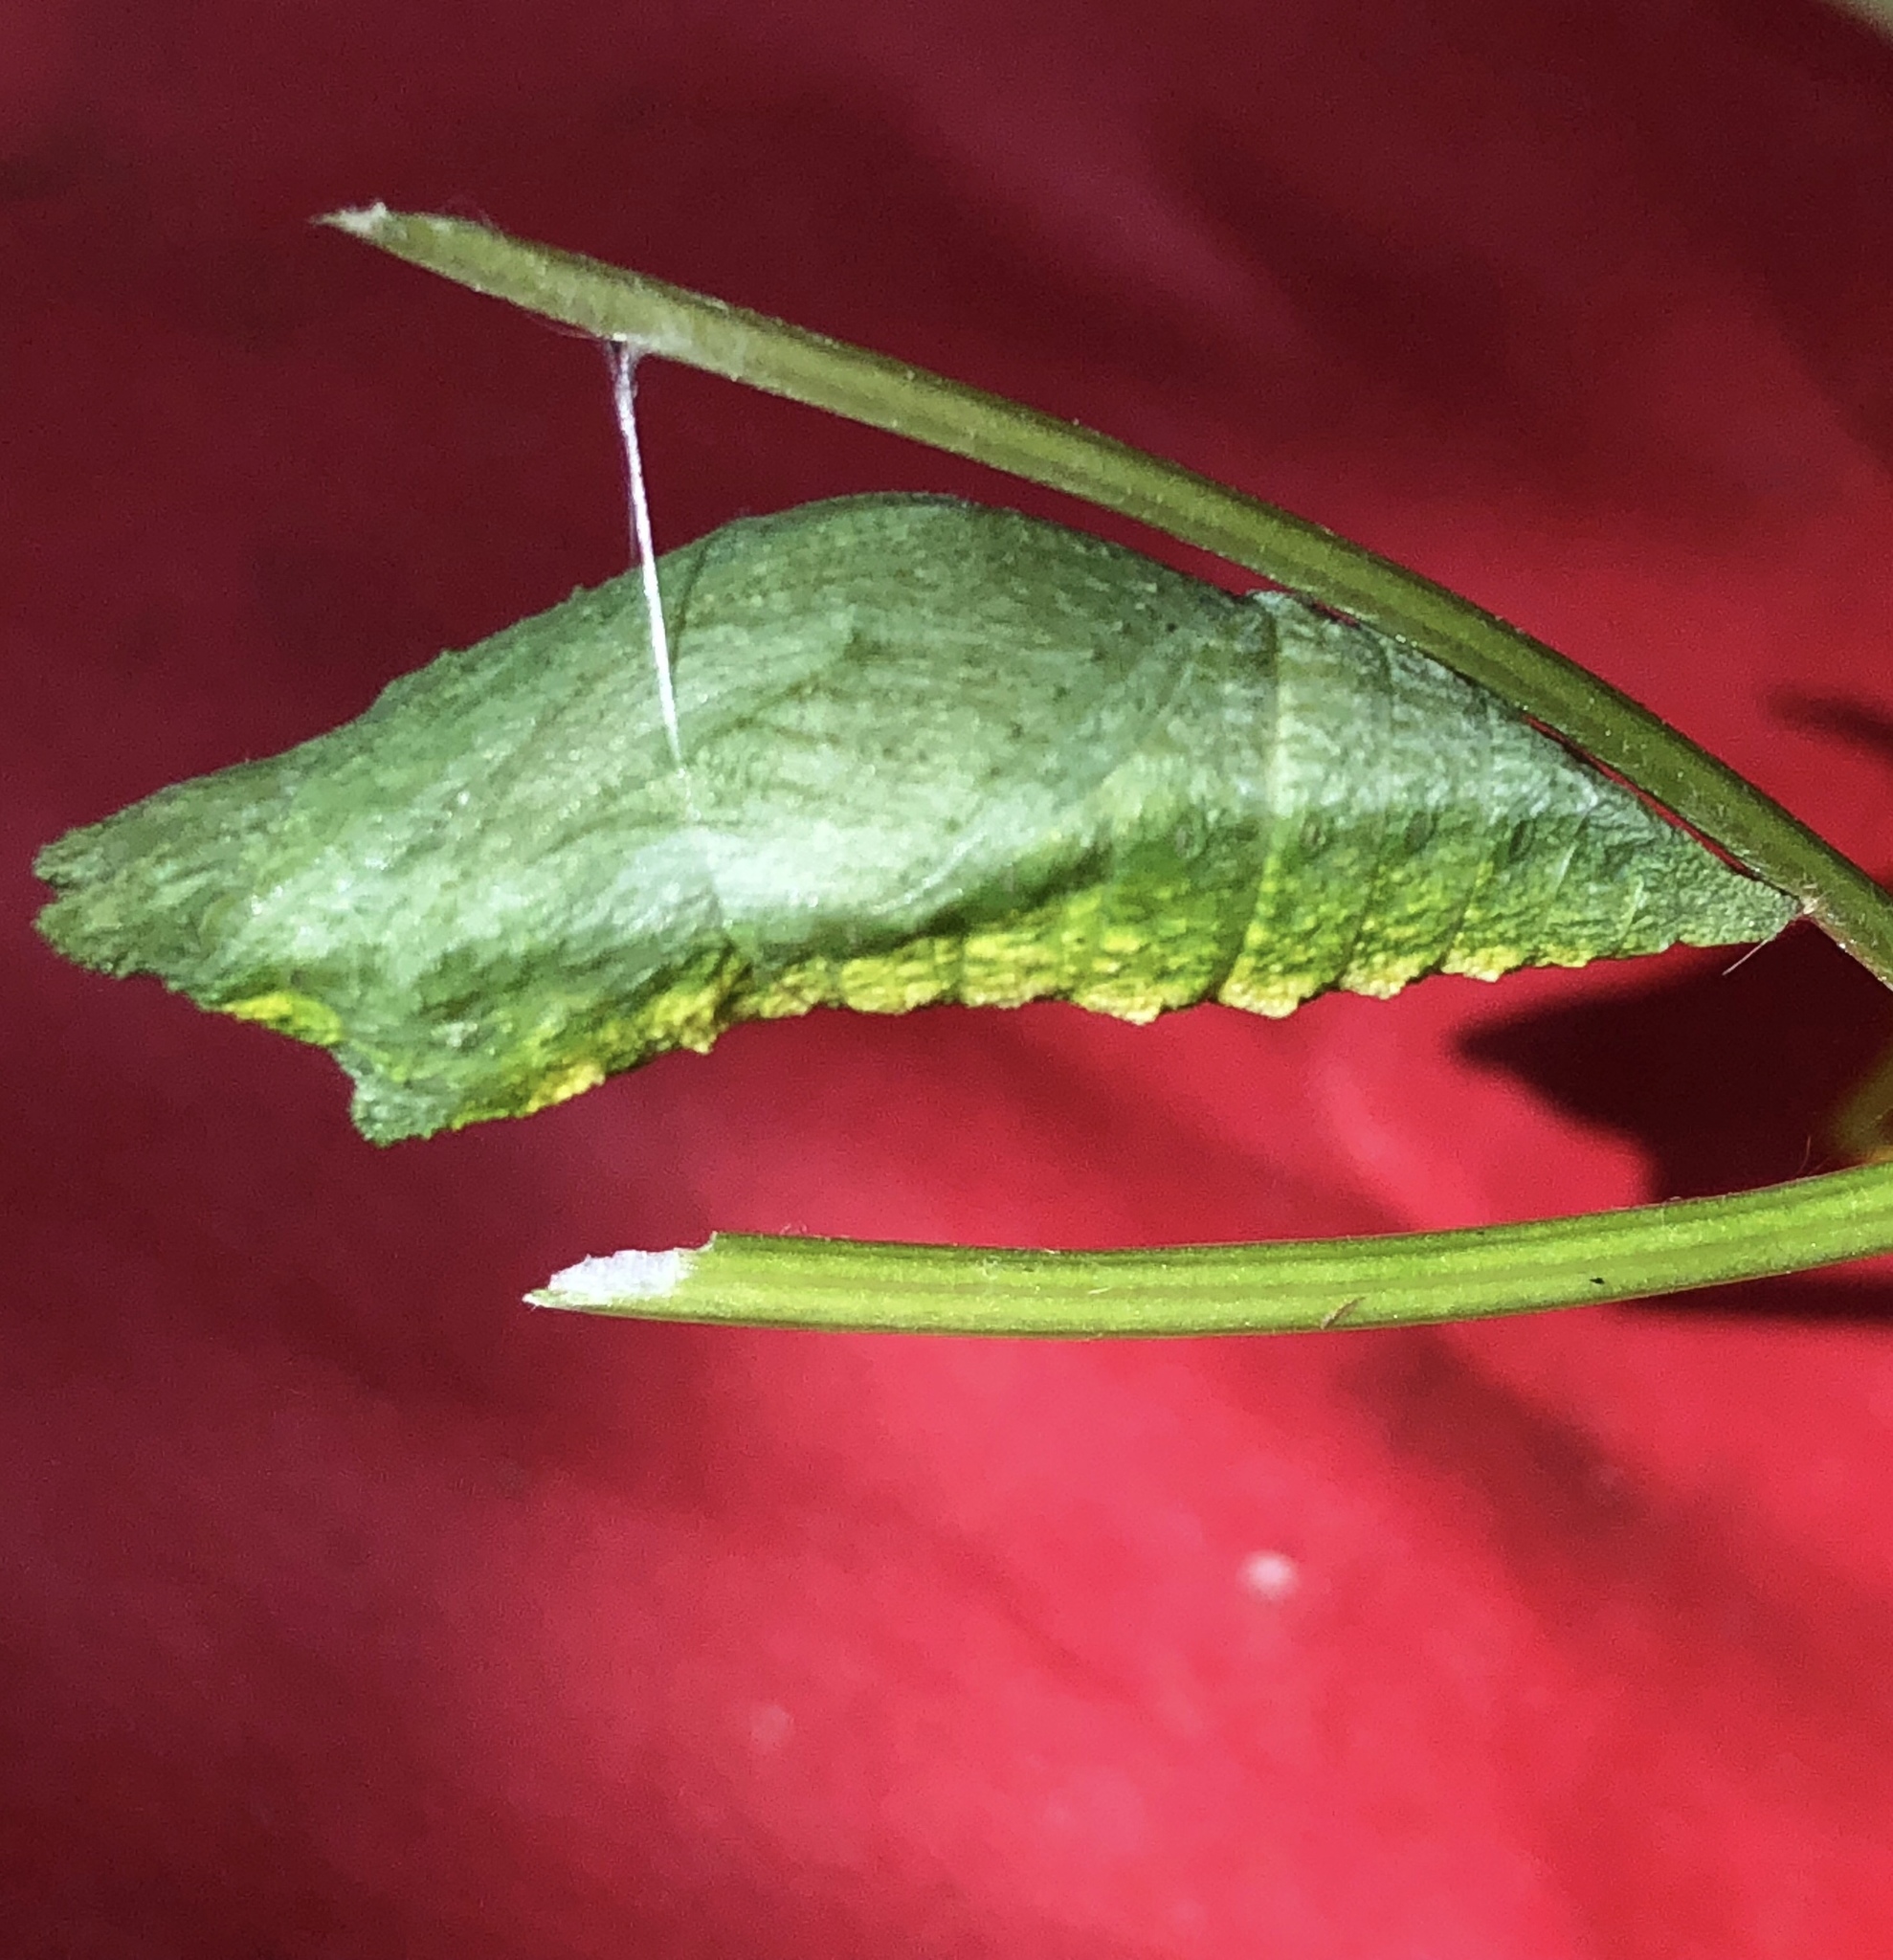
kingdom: Animalia
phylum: Arthropoda
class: Insecta
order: Lepidoptera
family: Papilionidae
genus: Papilio
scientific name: Papilio polyxenes
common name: Black swallowtail
